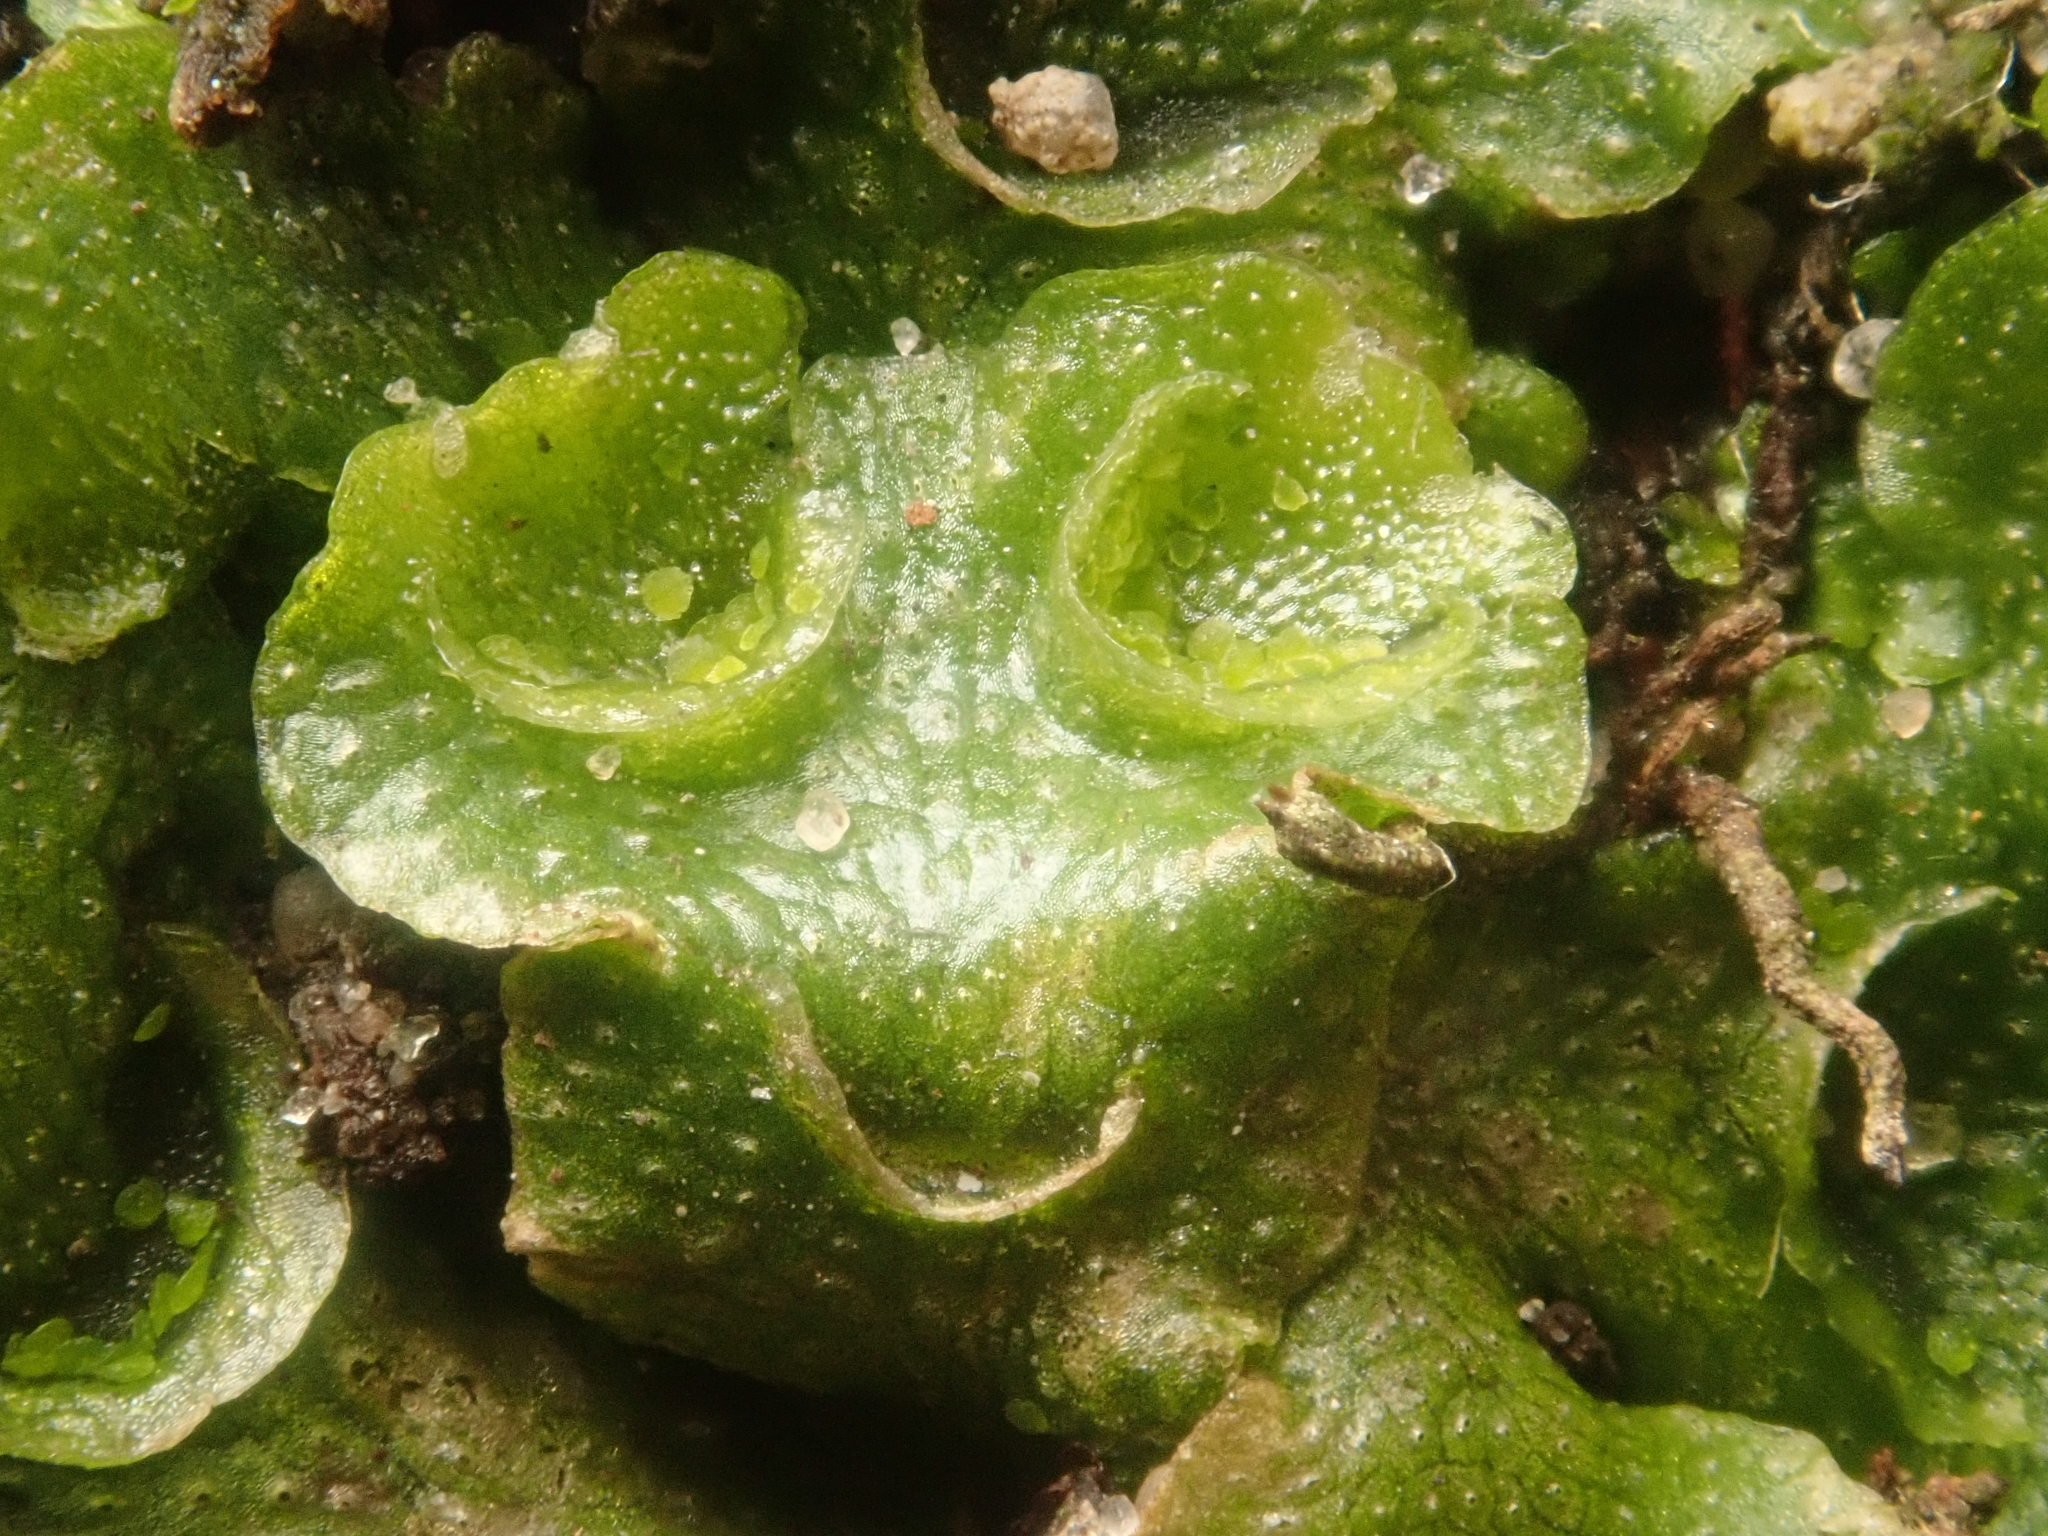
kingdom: Plantae
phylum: Marchantiophyta
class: Marchantiopsida
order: Lunulariales
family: Lunulariaceae
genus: Lunularia
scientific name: Lunularia cruciata
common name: Crescent-cup liverwort
